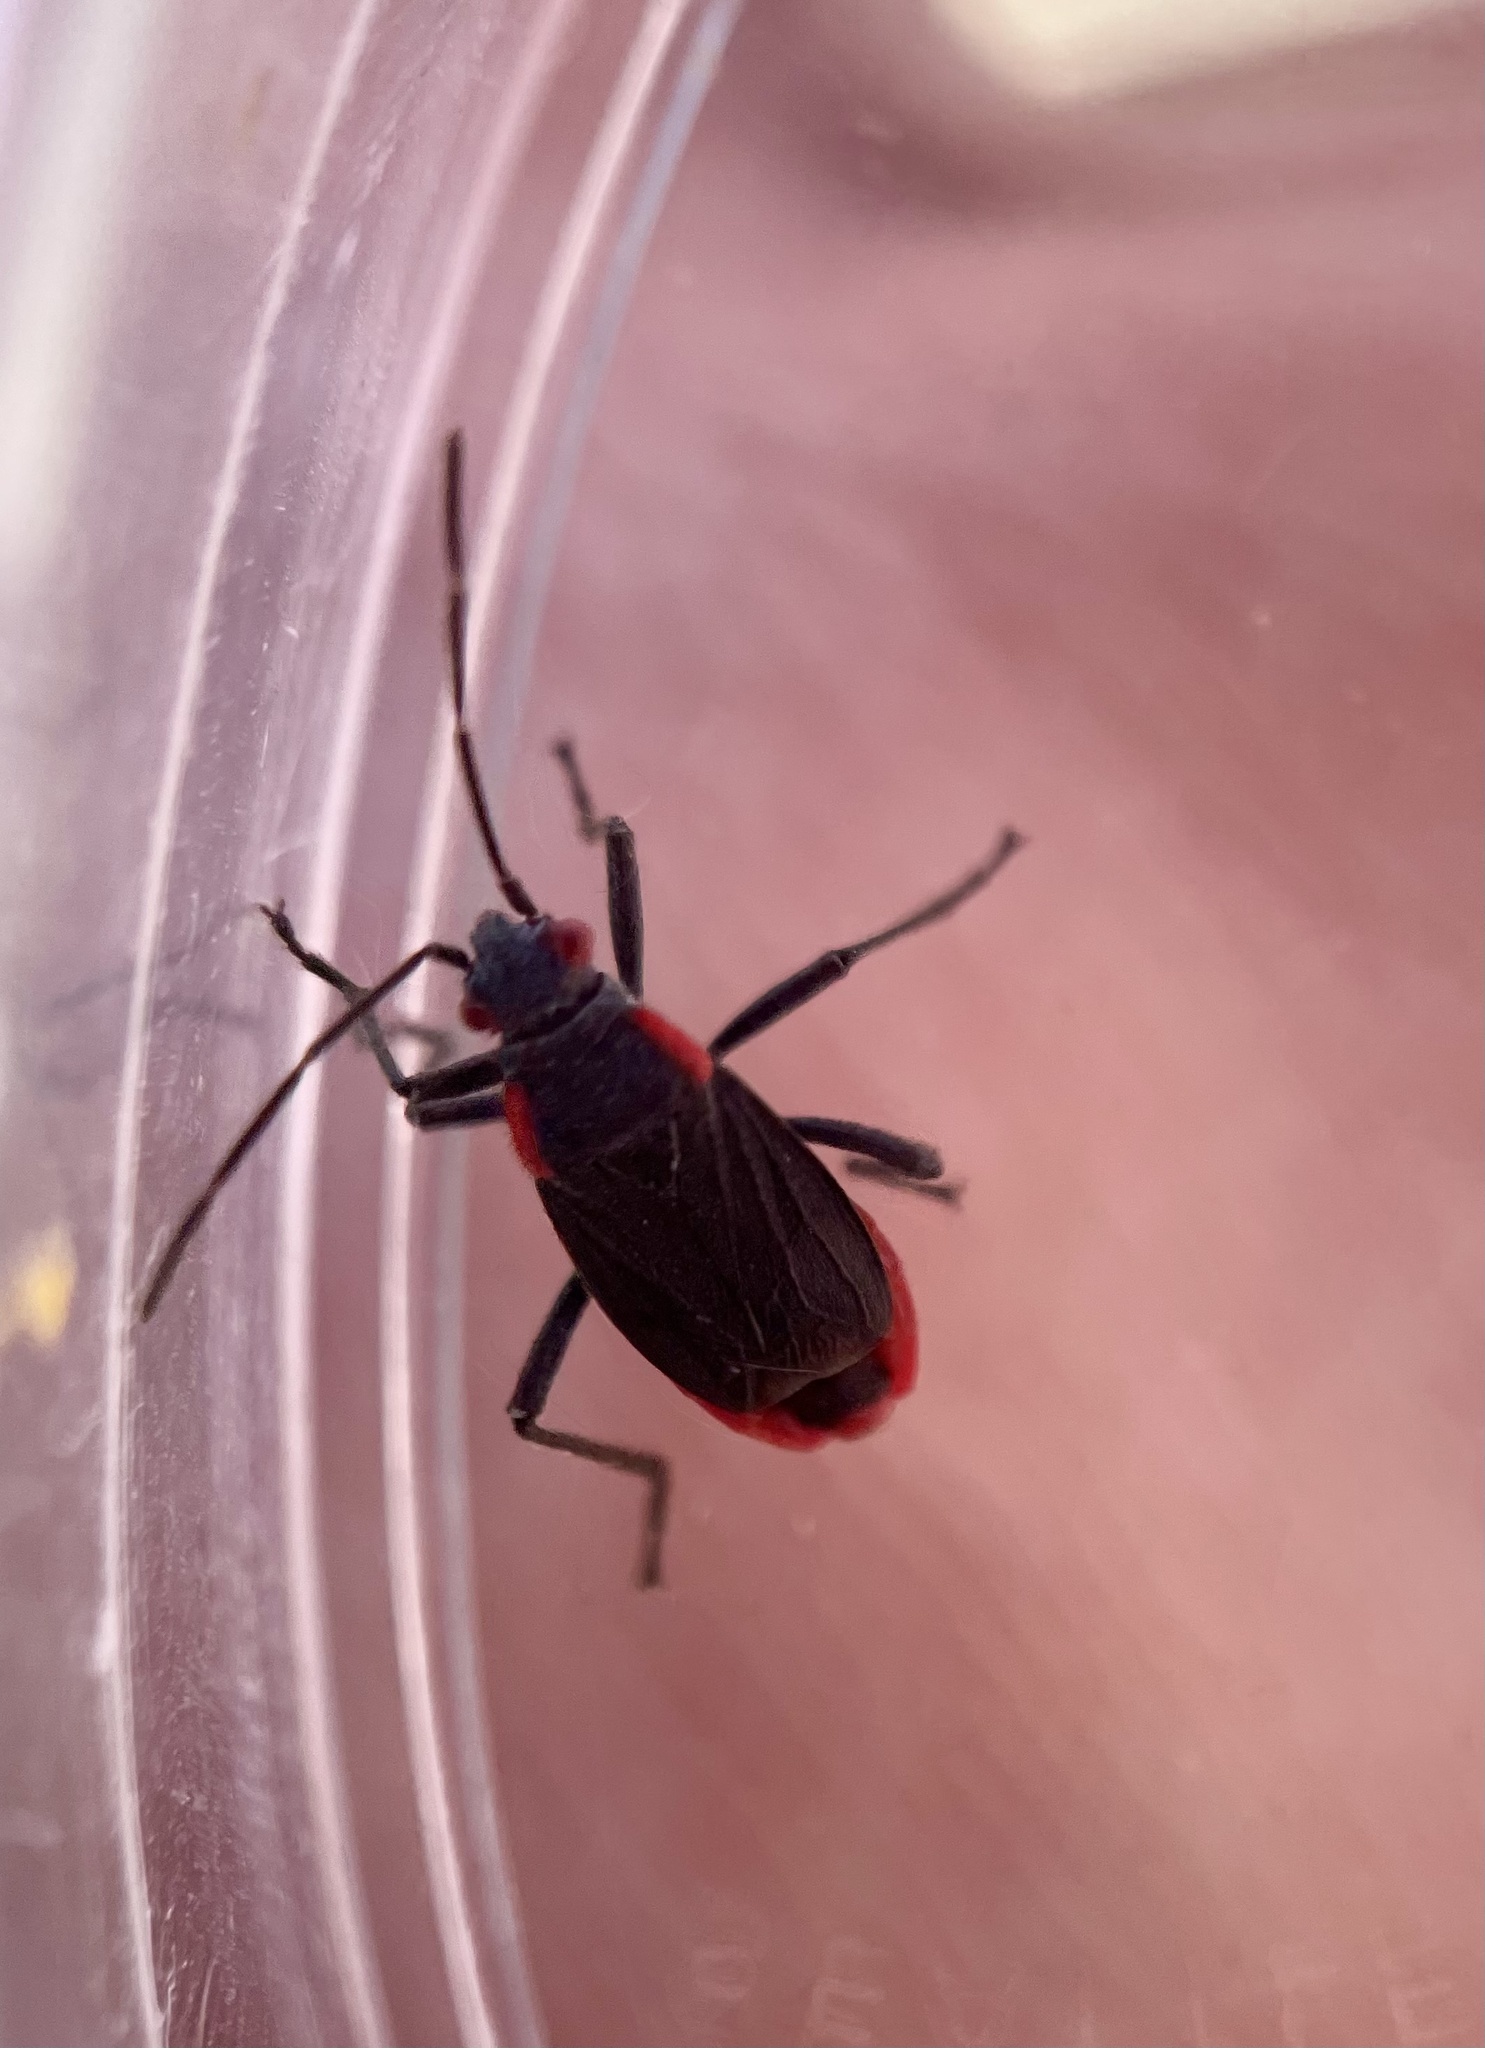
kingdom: Animalia
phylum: Arthropoda
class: Insecta
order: Hemiptera
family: Rhopalidae
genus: Jadera
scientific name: Jadera haematoloma
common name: Red-shouldered bug
